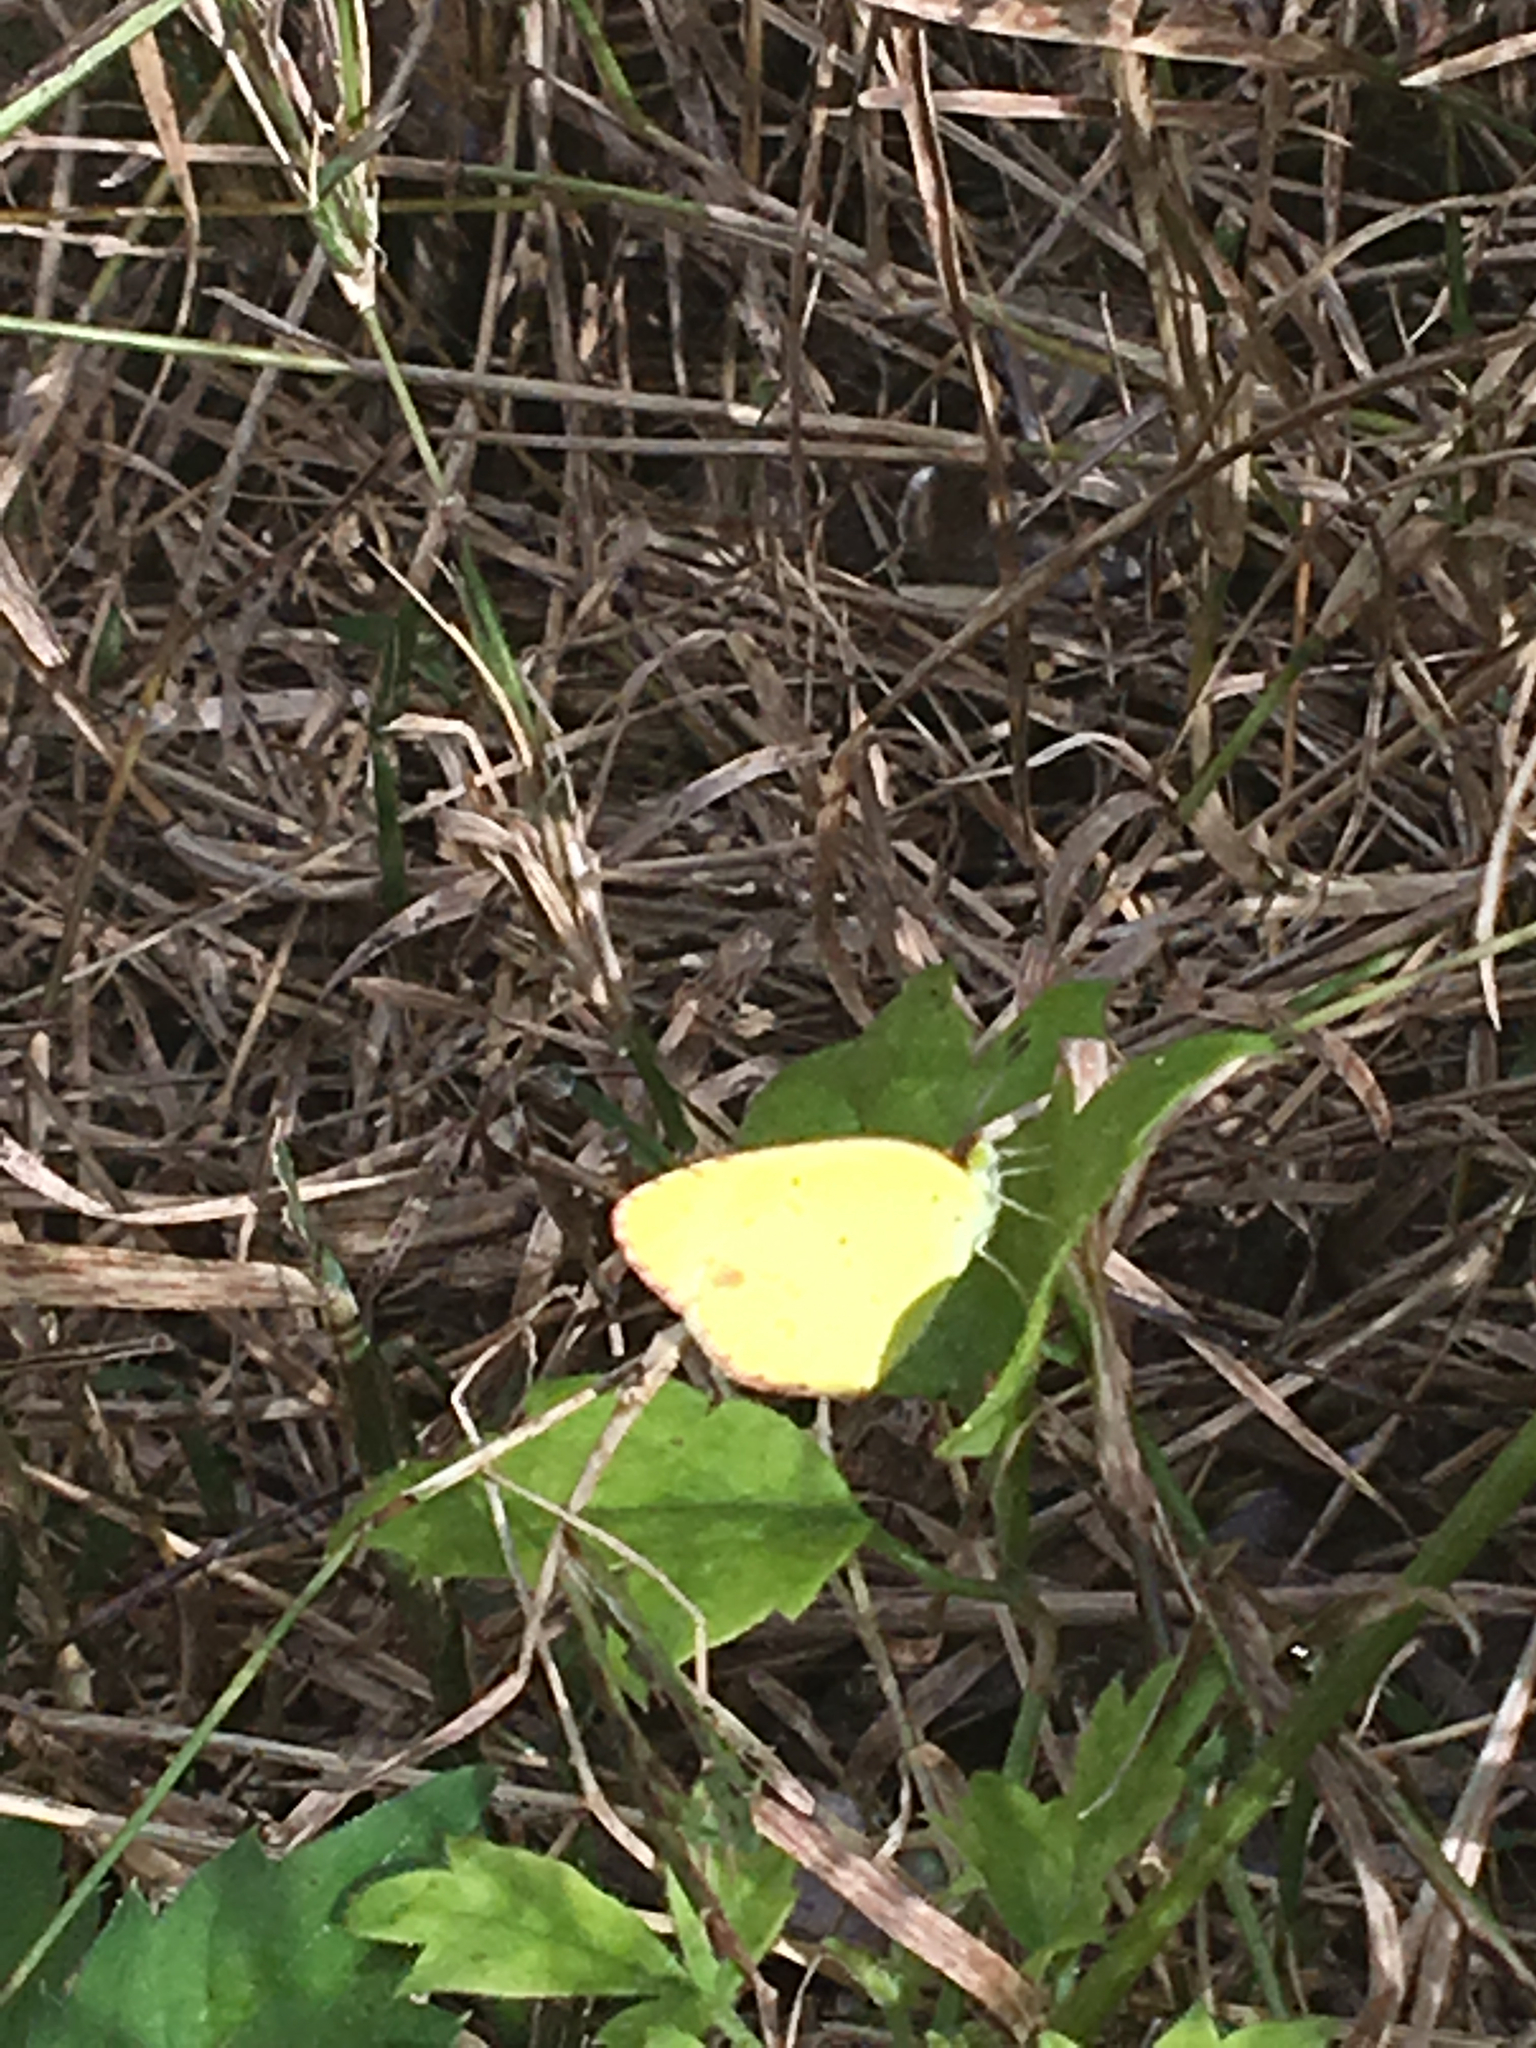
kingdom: Animalia
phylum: Arthropoda
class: Insecta
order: Lepidoptera
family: Pieridae
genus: Pyrisitia
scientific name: Pyrisitia lisa
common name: Little yellow
